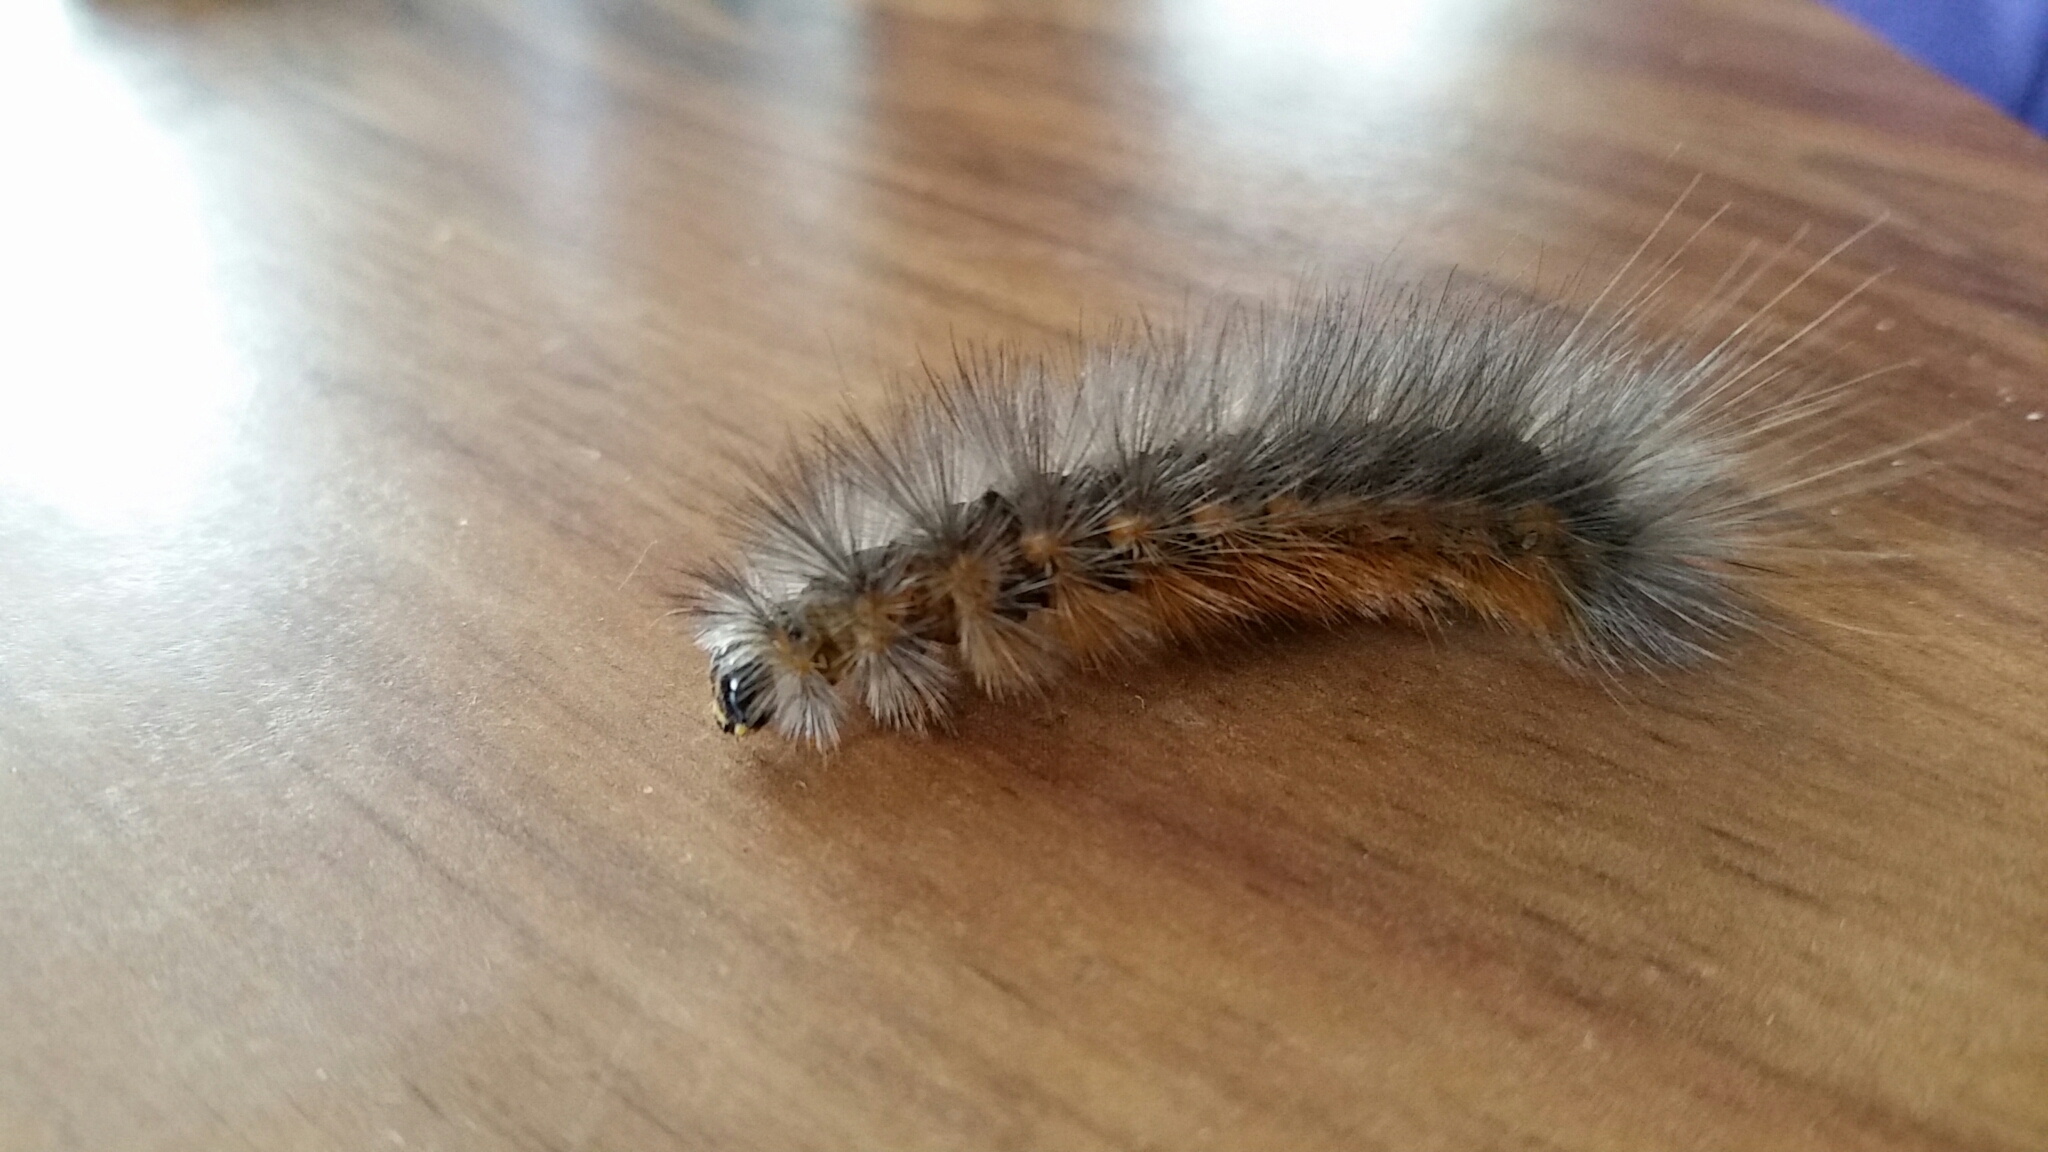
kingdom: Animalia
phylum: Arthropoda
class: Insecta
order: Lepidoptera
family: Erebidae
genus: Estigmene
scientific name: Estigmene acrea
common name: Salt marsh moth
